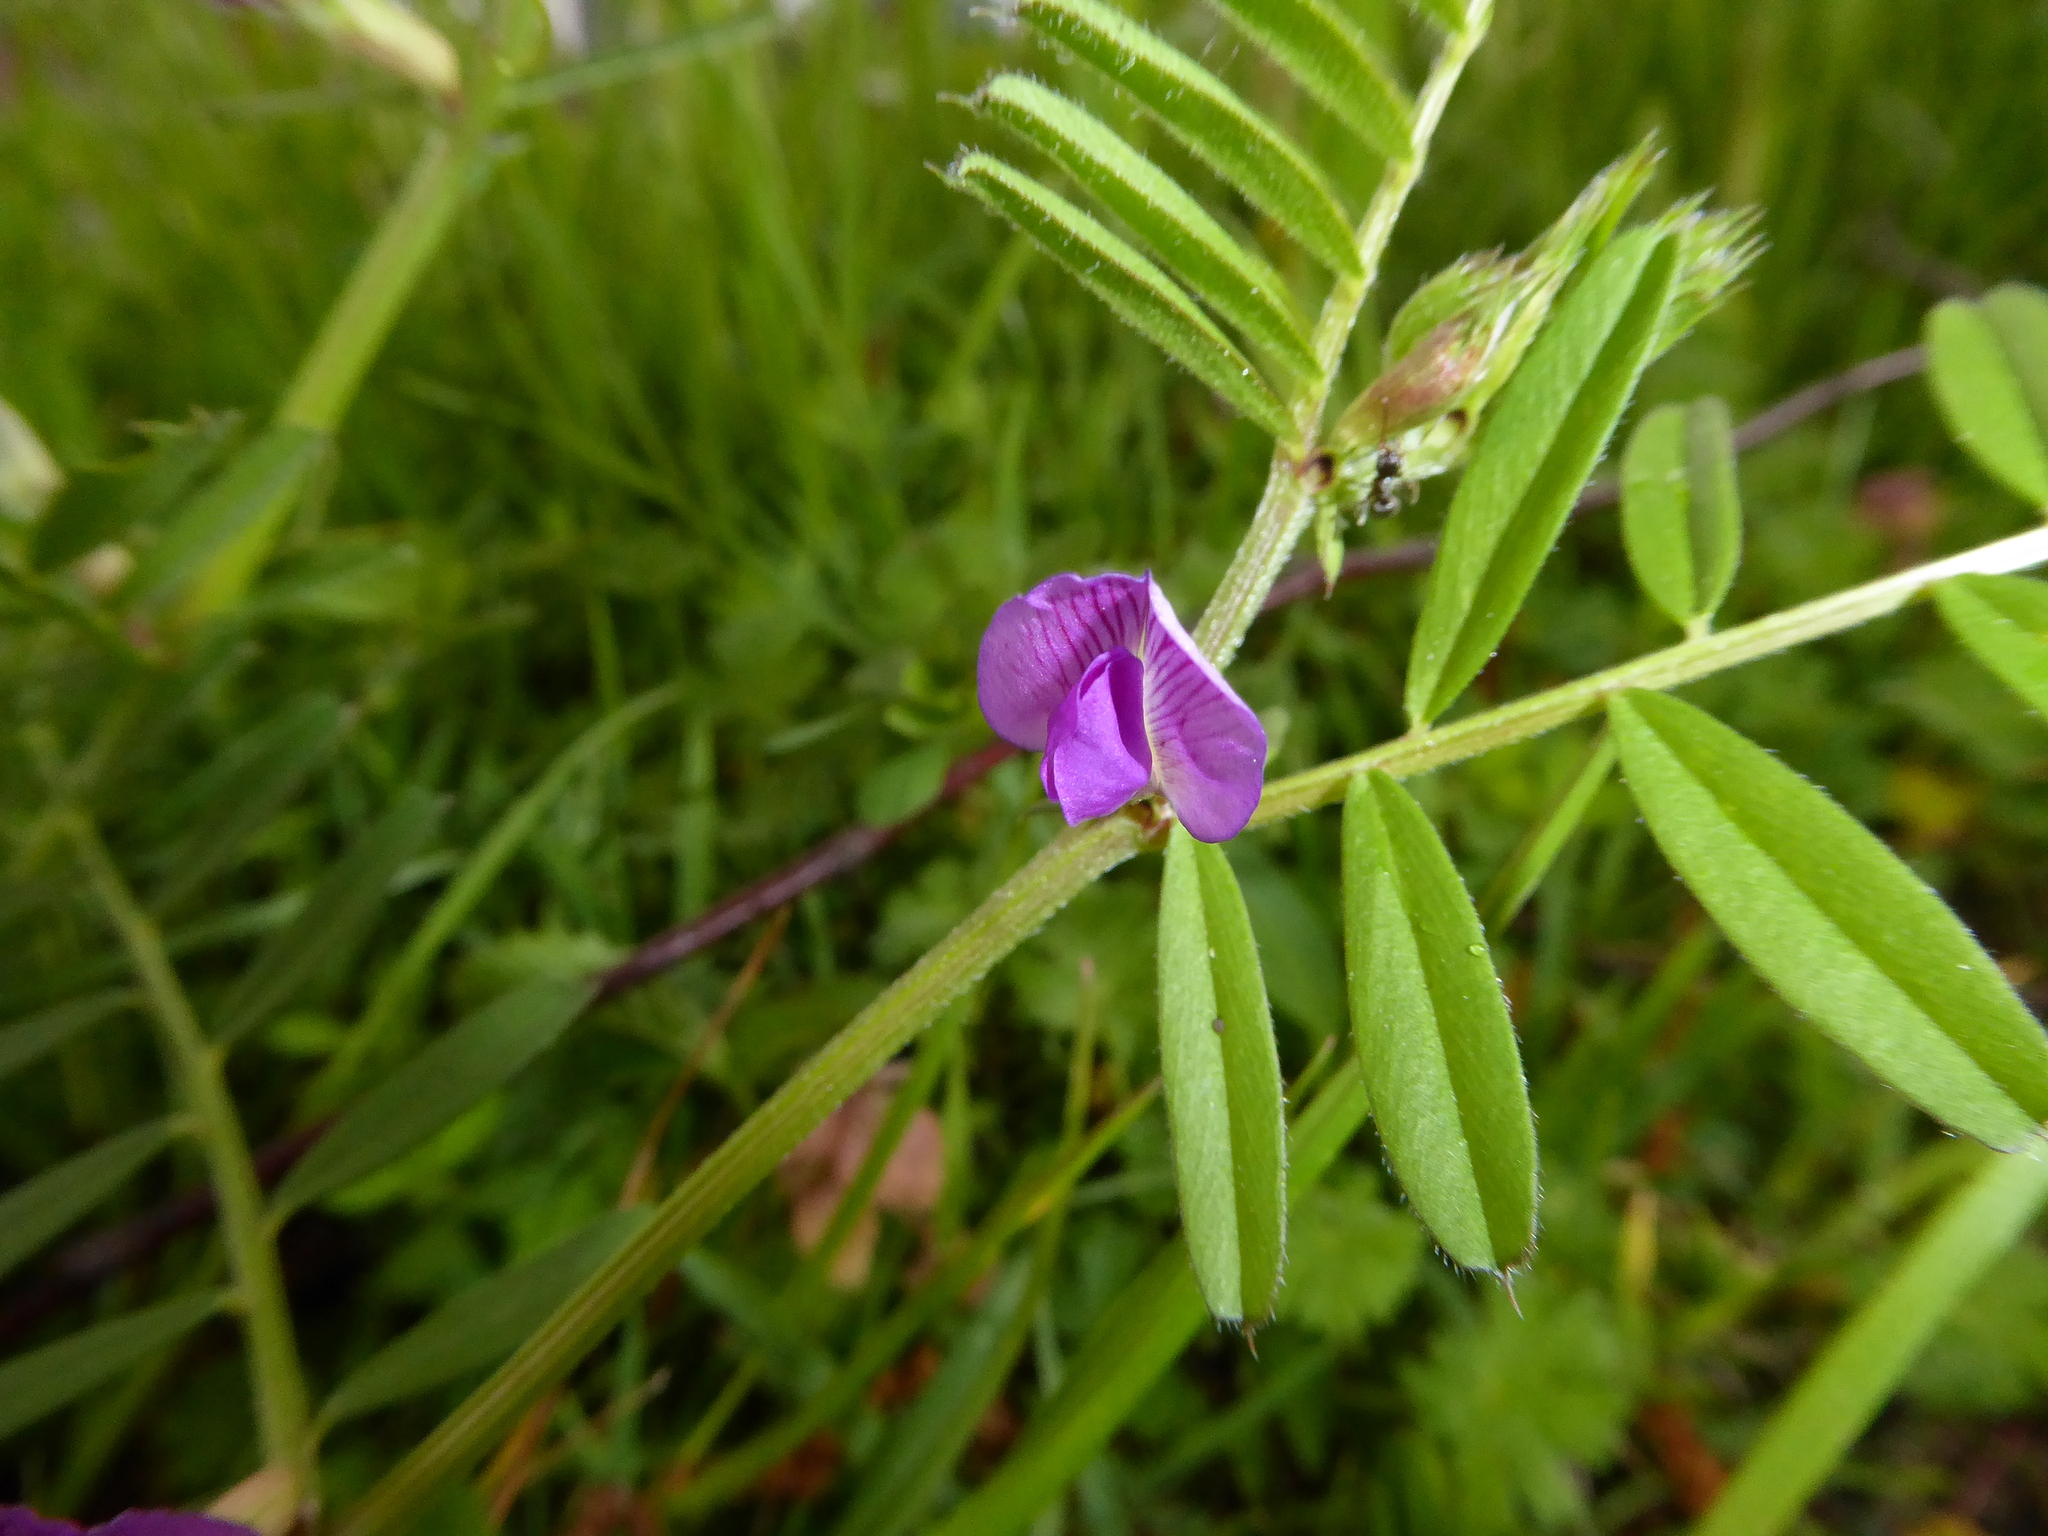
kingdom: Plantae
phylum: Tracheophyta
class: Magnoliopsida
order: Fabales
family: Fabaceae
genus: Vicia
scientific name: Vicia sativa
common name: Garden vetch
